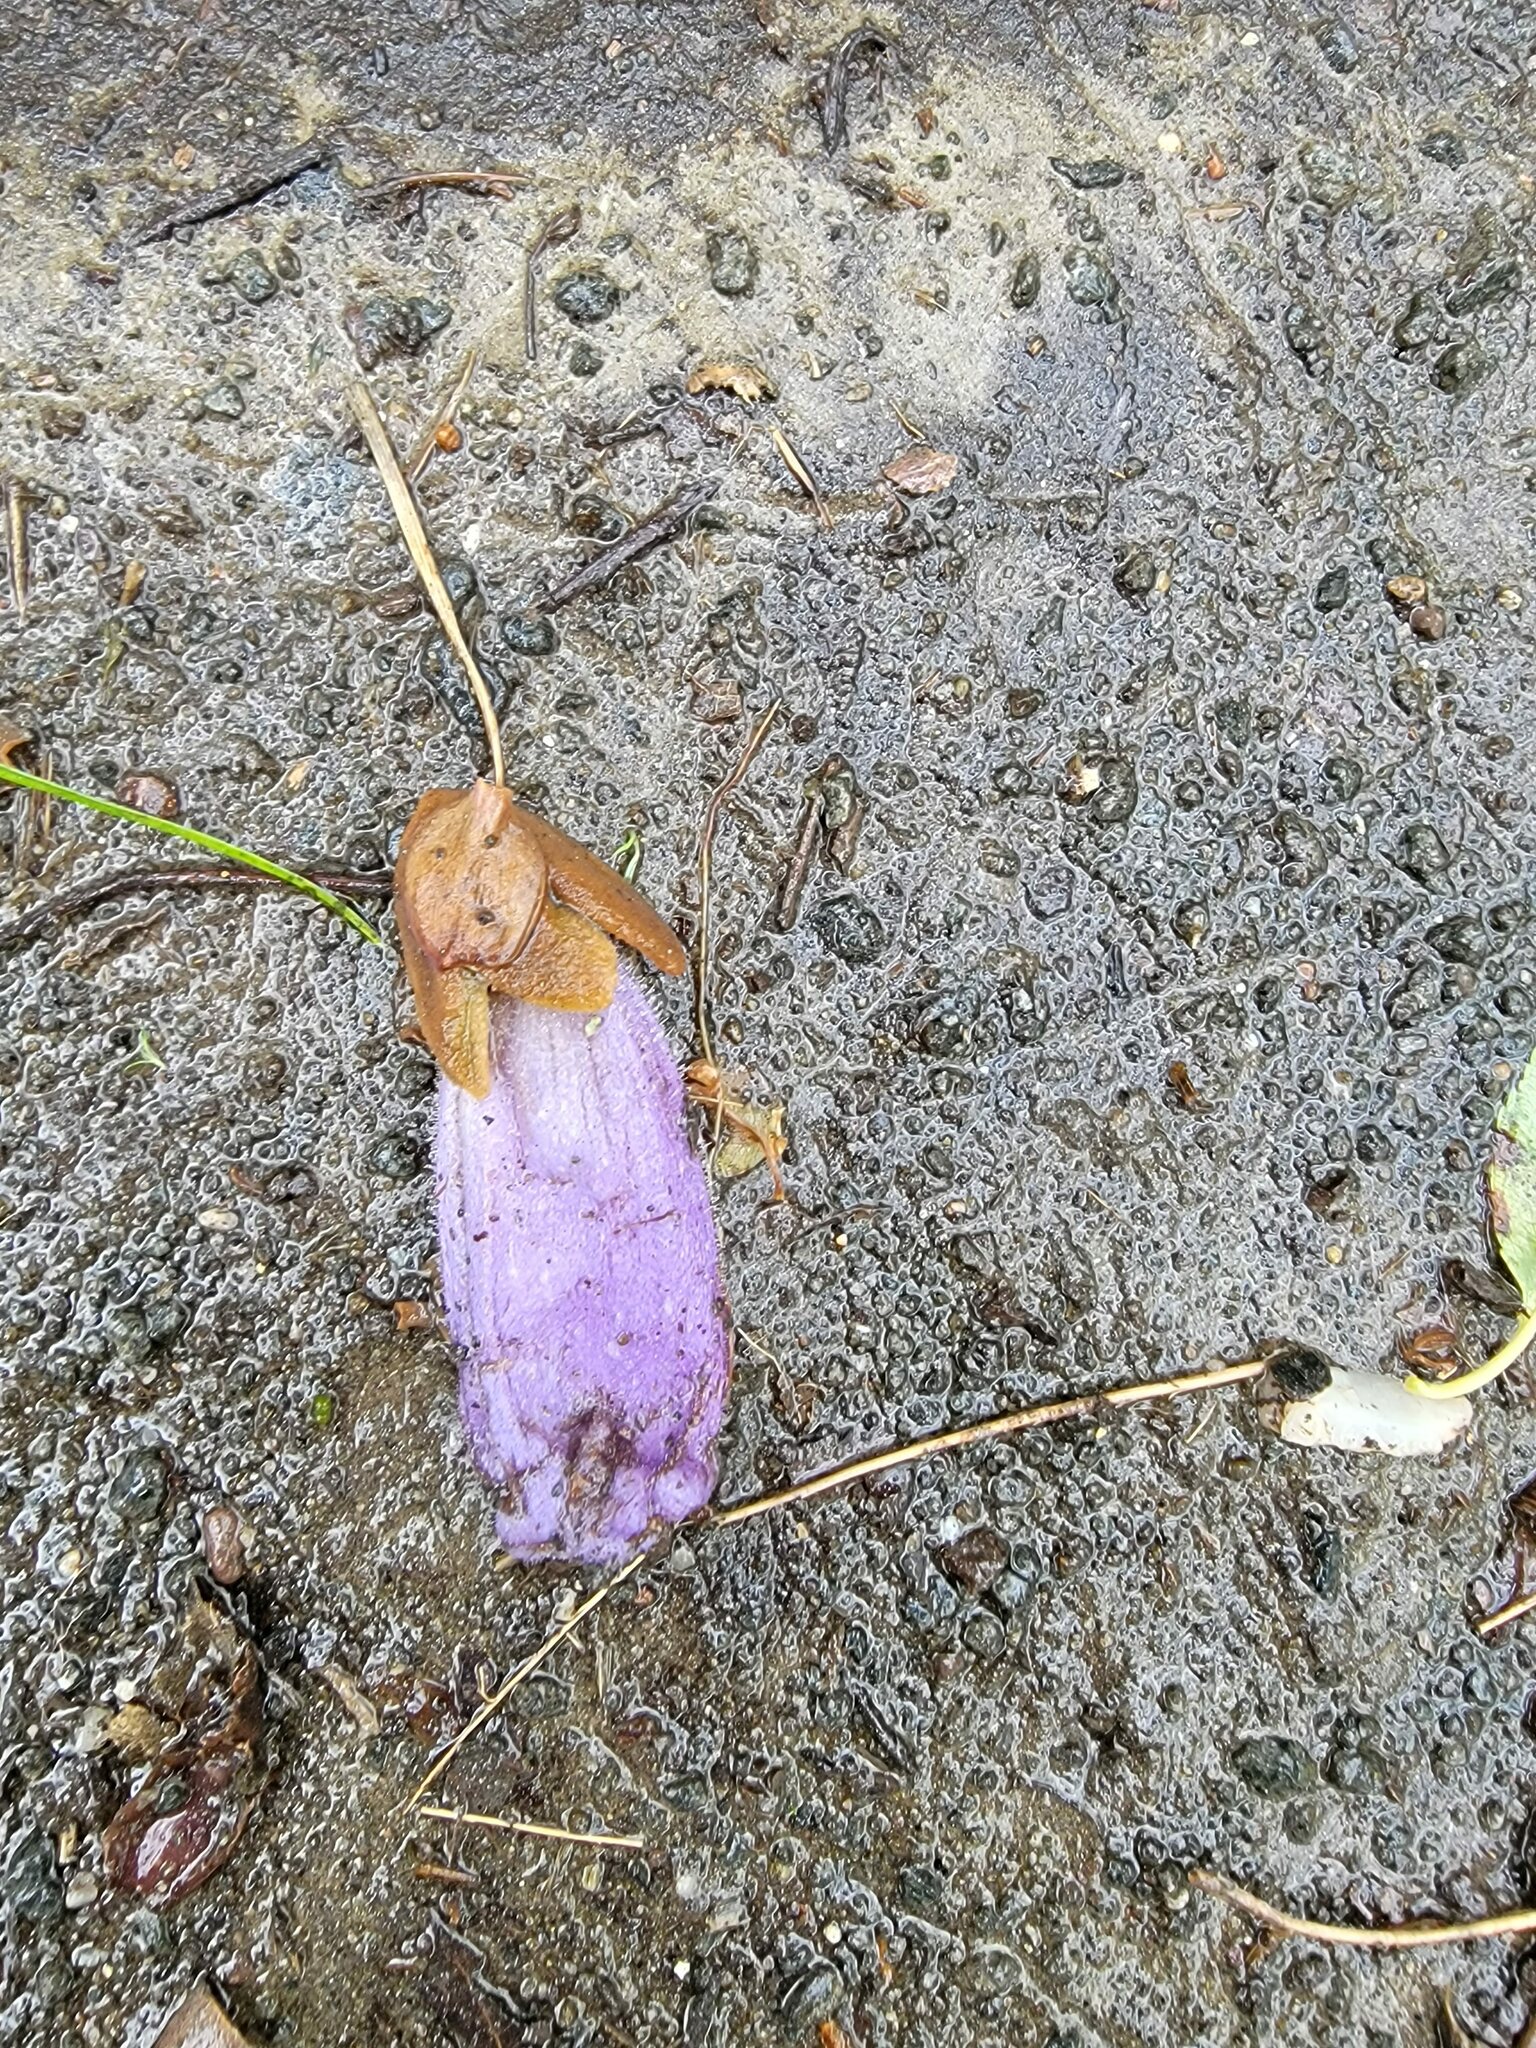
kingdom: Plantae
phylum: Tracheophyta
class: Magnoliopsida
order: Lamiales
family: Paulowniaceae
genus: Paulownia
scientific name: Paulownia tomentosa
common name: Foxglove-tree
